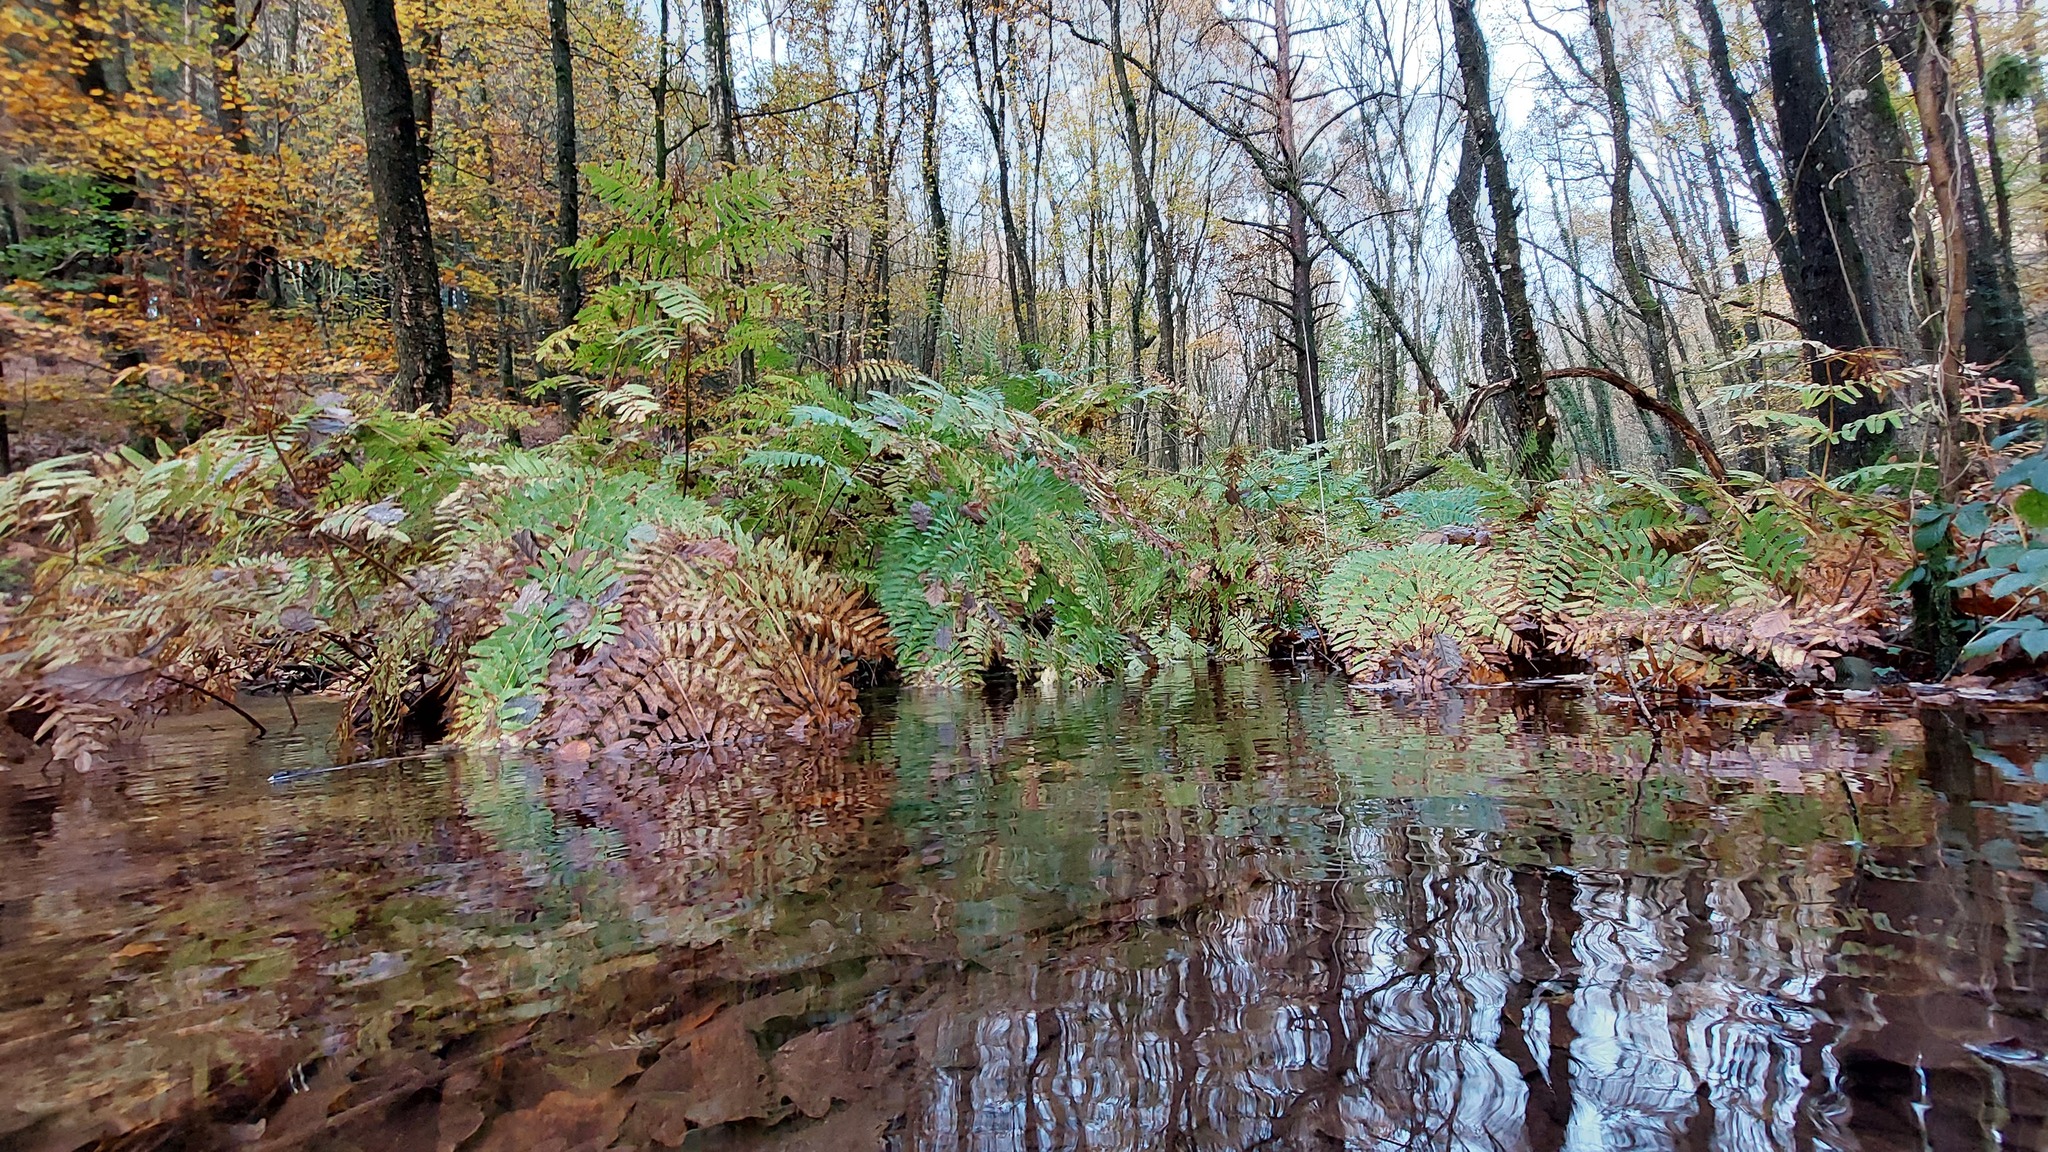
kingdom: Plantae
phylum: Tracheophyta
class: Polypodiopsida
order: Osmundales
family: Osmundaceae
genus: Osmunda
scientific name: Osmunda regalis
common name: Royal fern
